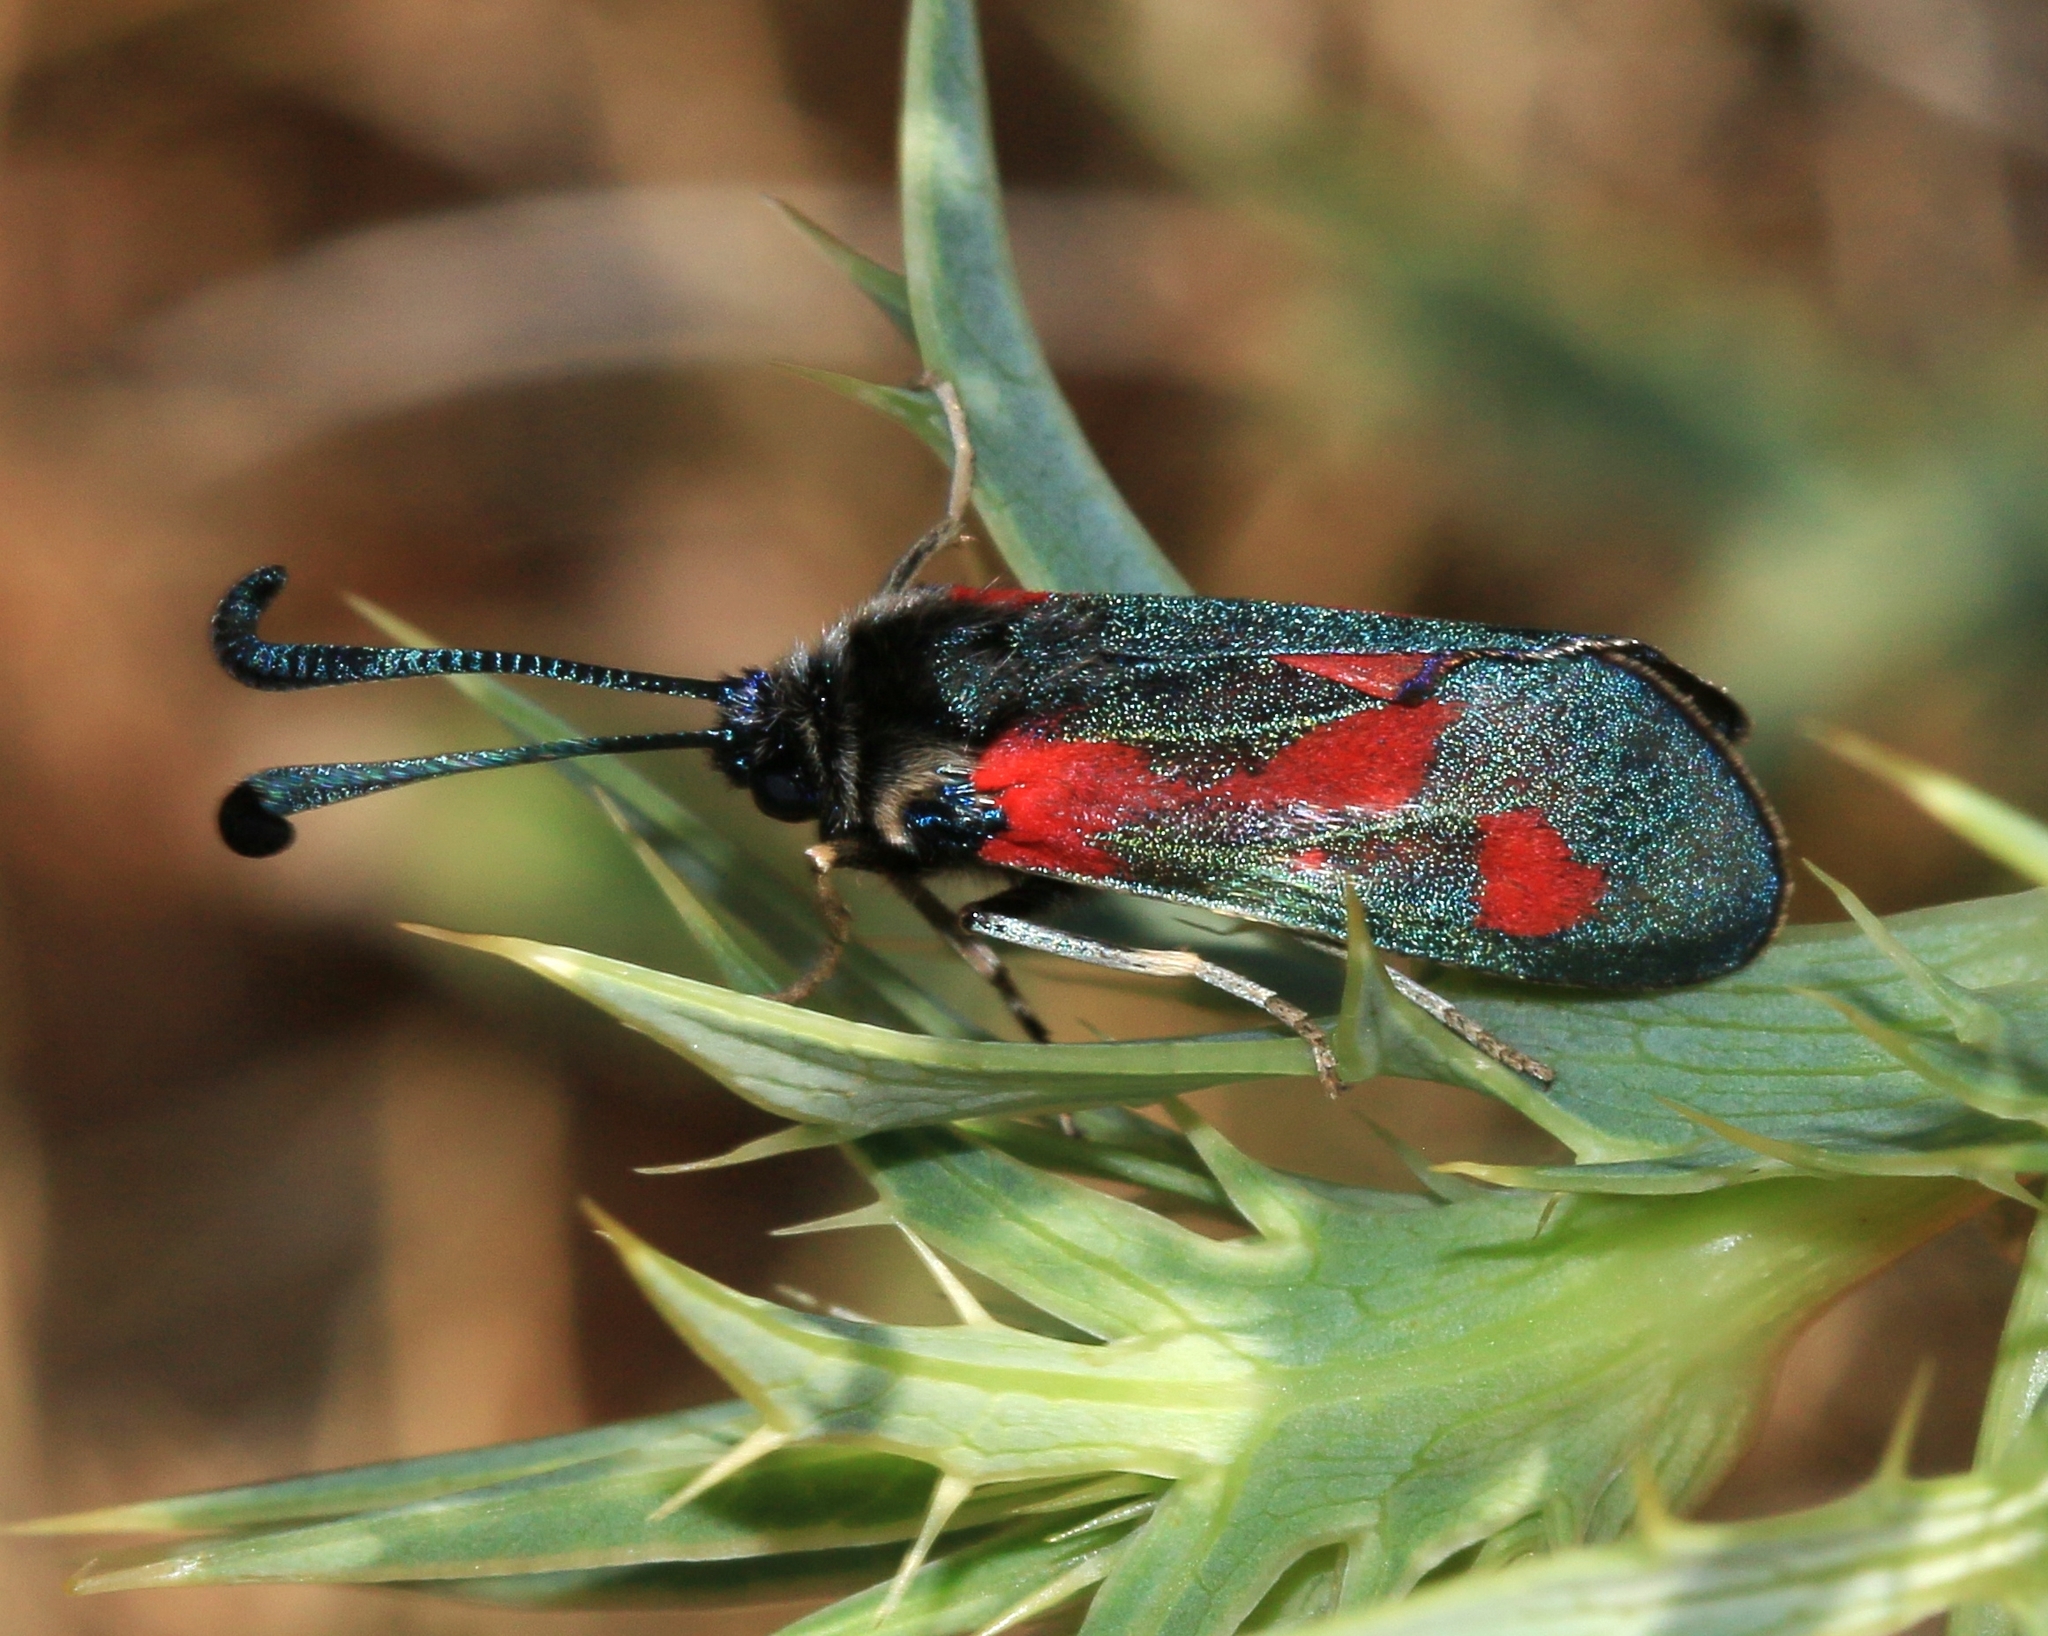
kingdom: Animalia
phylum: Arthropoda
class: Insecta
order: Lepidoptera
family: Zygaenidae
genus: Zygaena
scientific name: Zygaena sarpedon
